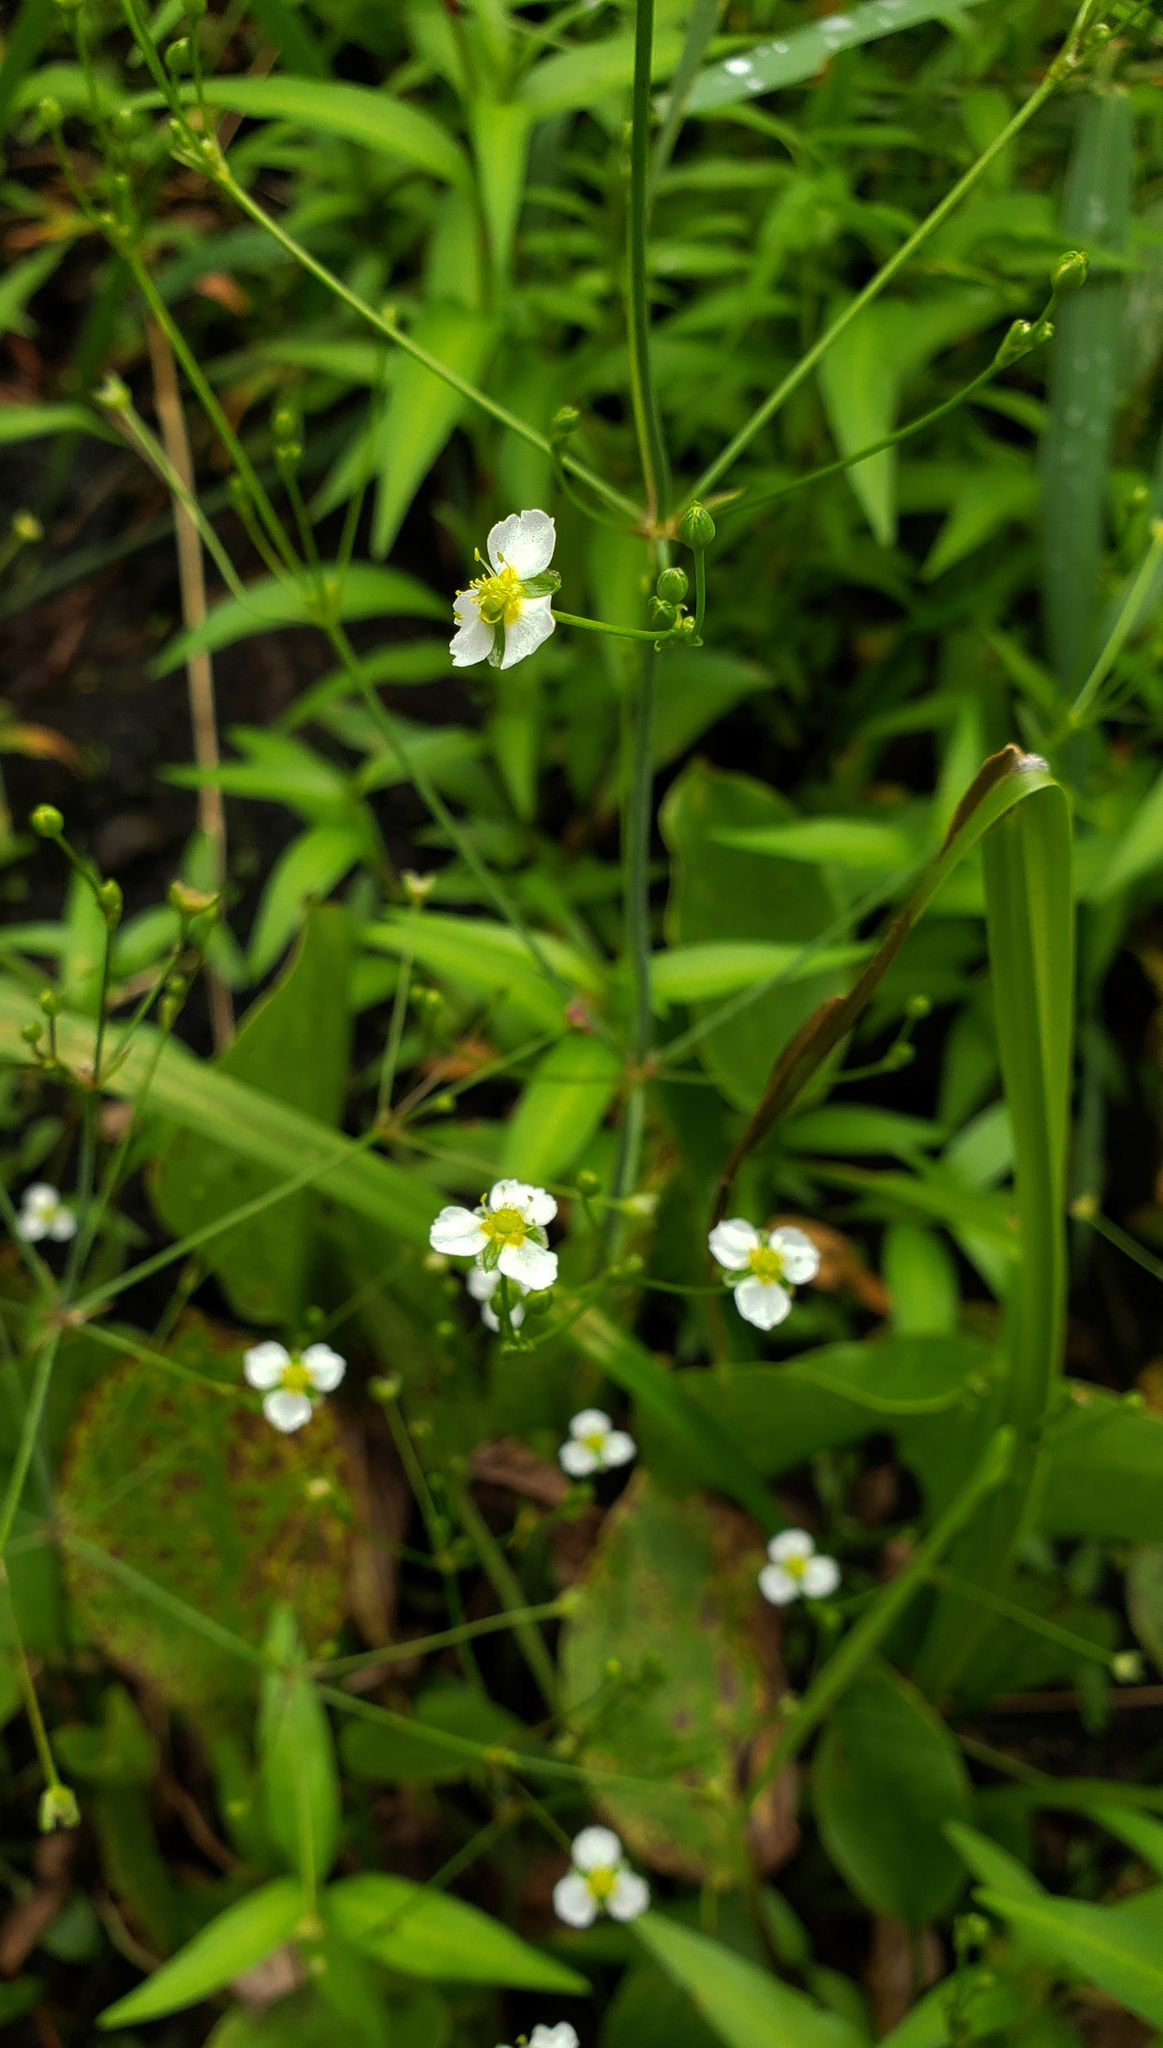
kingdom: Plantae
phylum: Tracheophyta
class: Liliopsida
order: Alismatales
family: Alismataceae
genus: Alisma
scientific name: Alisma triviale
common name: Northern water-plantain
